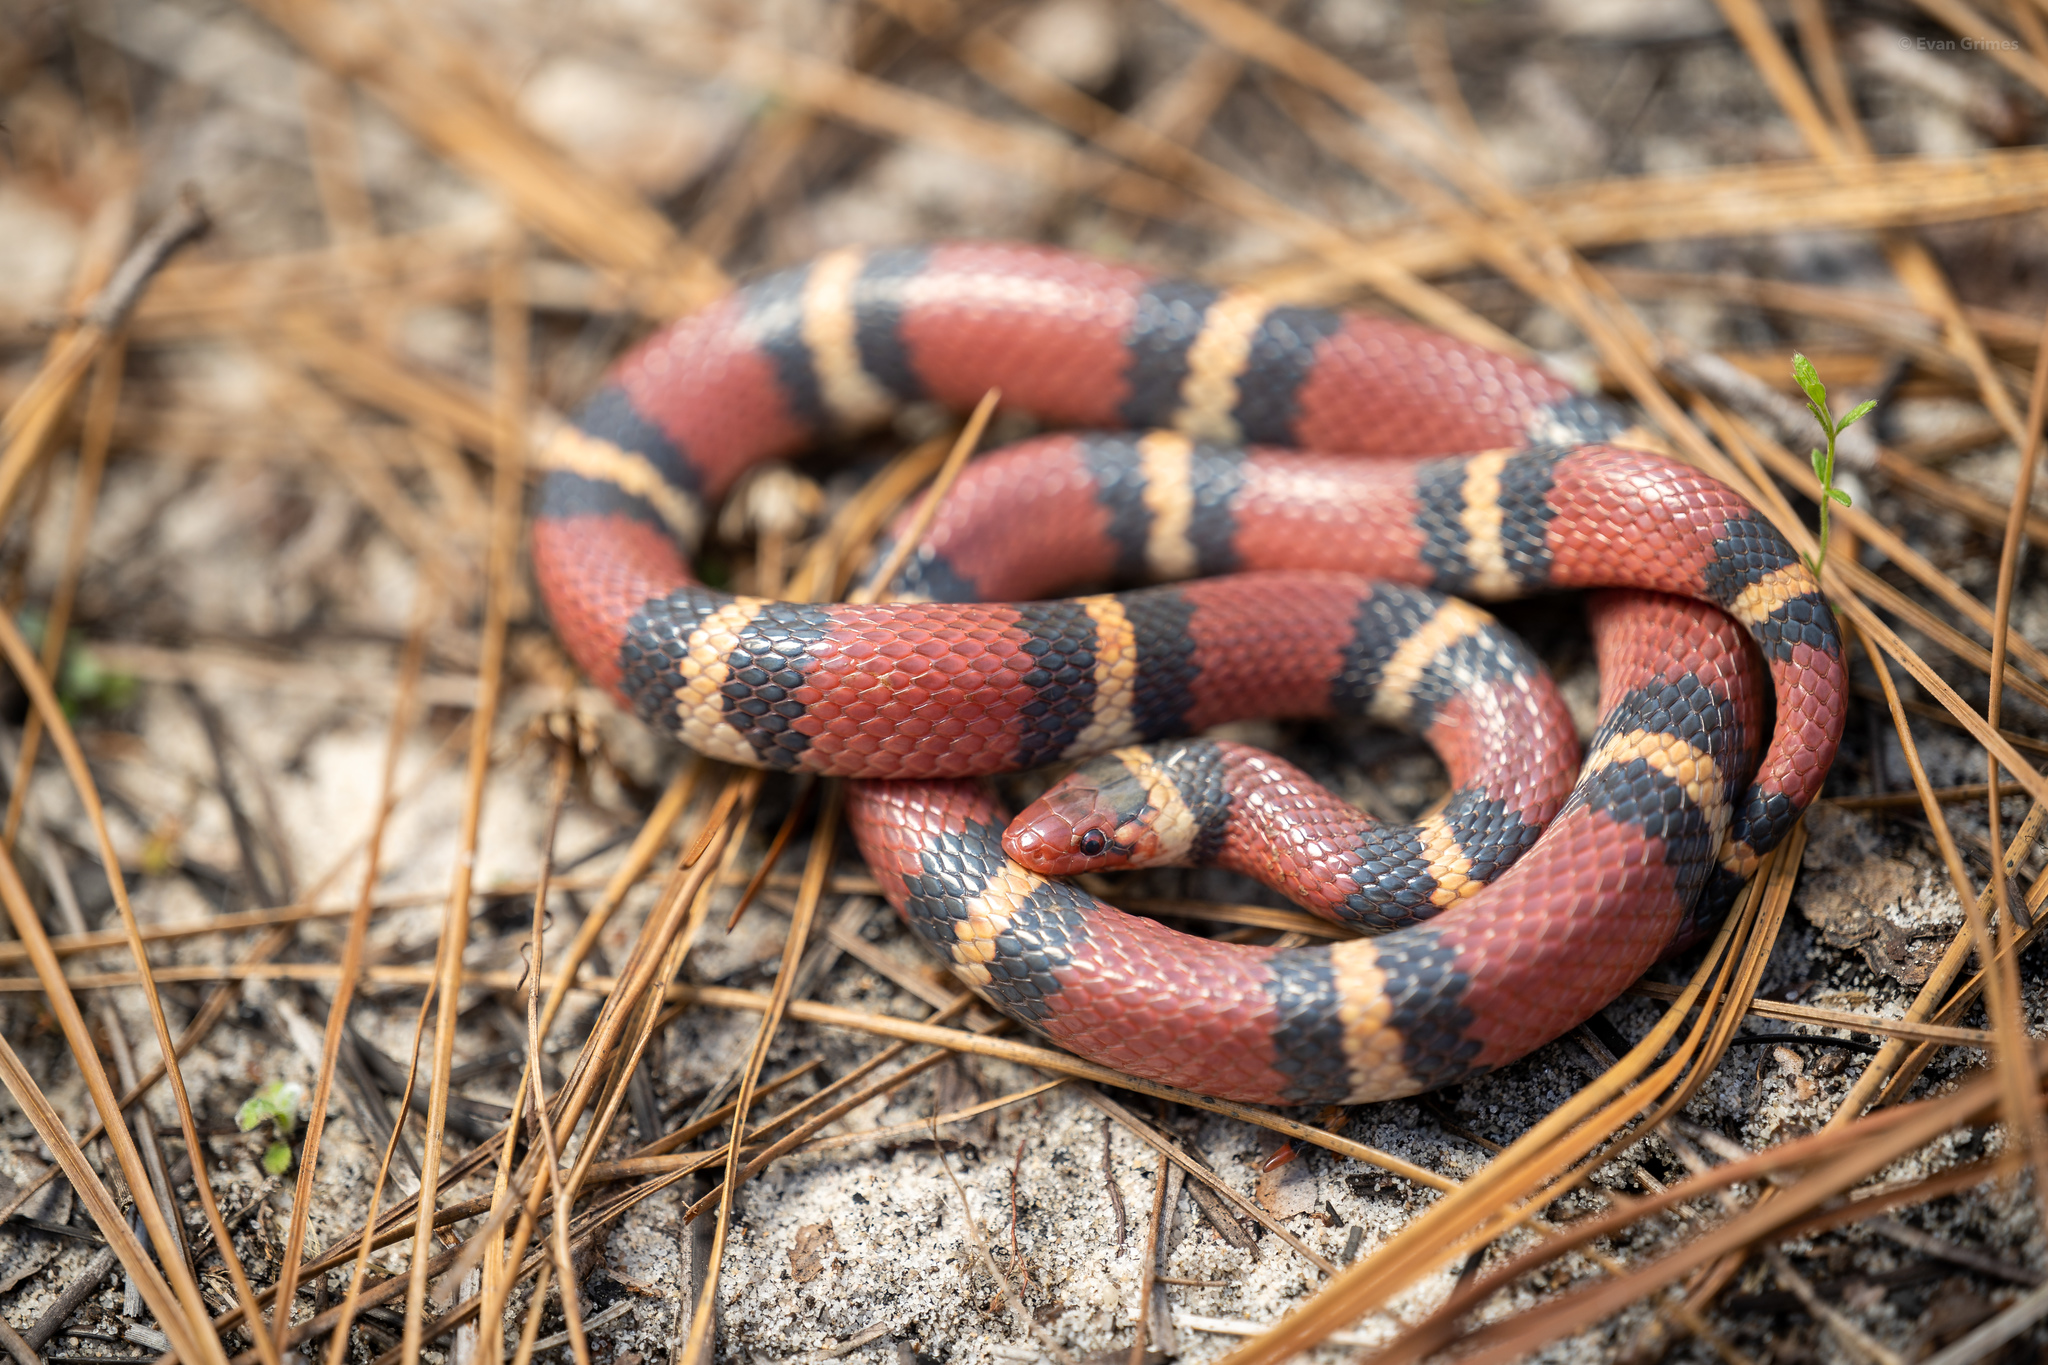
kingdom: Animalia
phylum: Chordata
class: Squamata
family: Colubridae
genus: Lampropeltis
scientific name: Lampropeltis elapsoides
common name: Scarlet kingsnake
